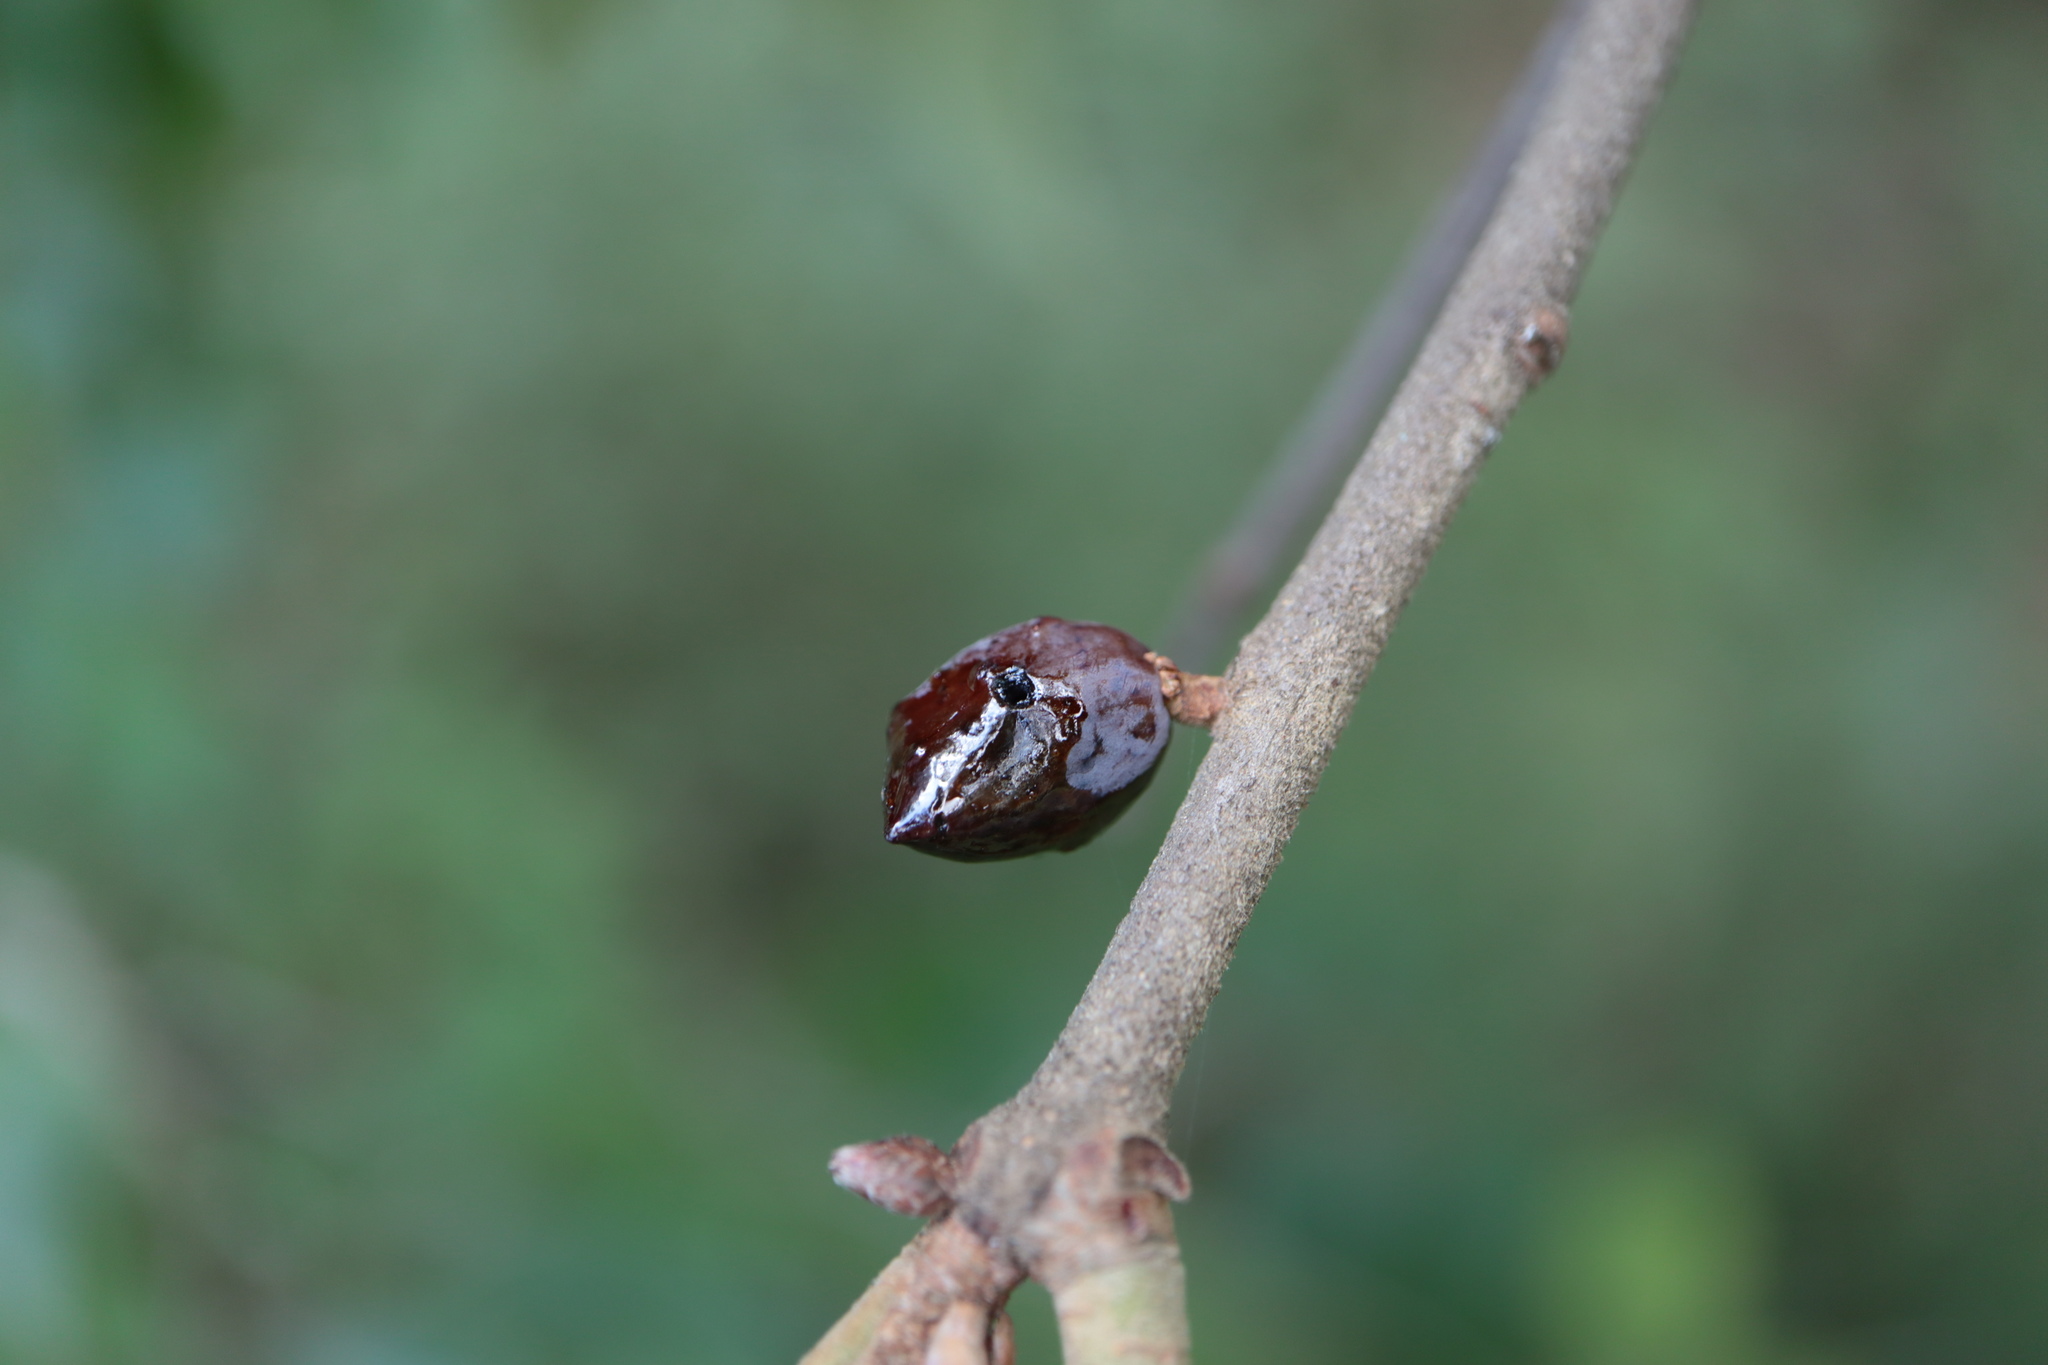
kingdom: Animalia
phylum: Arthropoda
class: Insecta
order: Hymenoptera
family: Cynipidae
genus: Amphibolips
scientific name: Amphibolips
